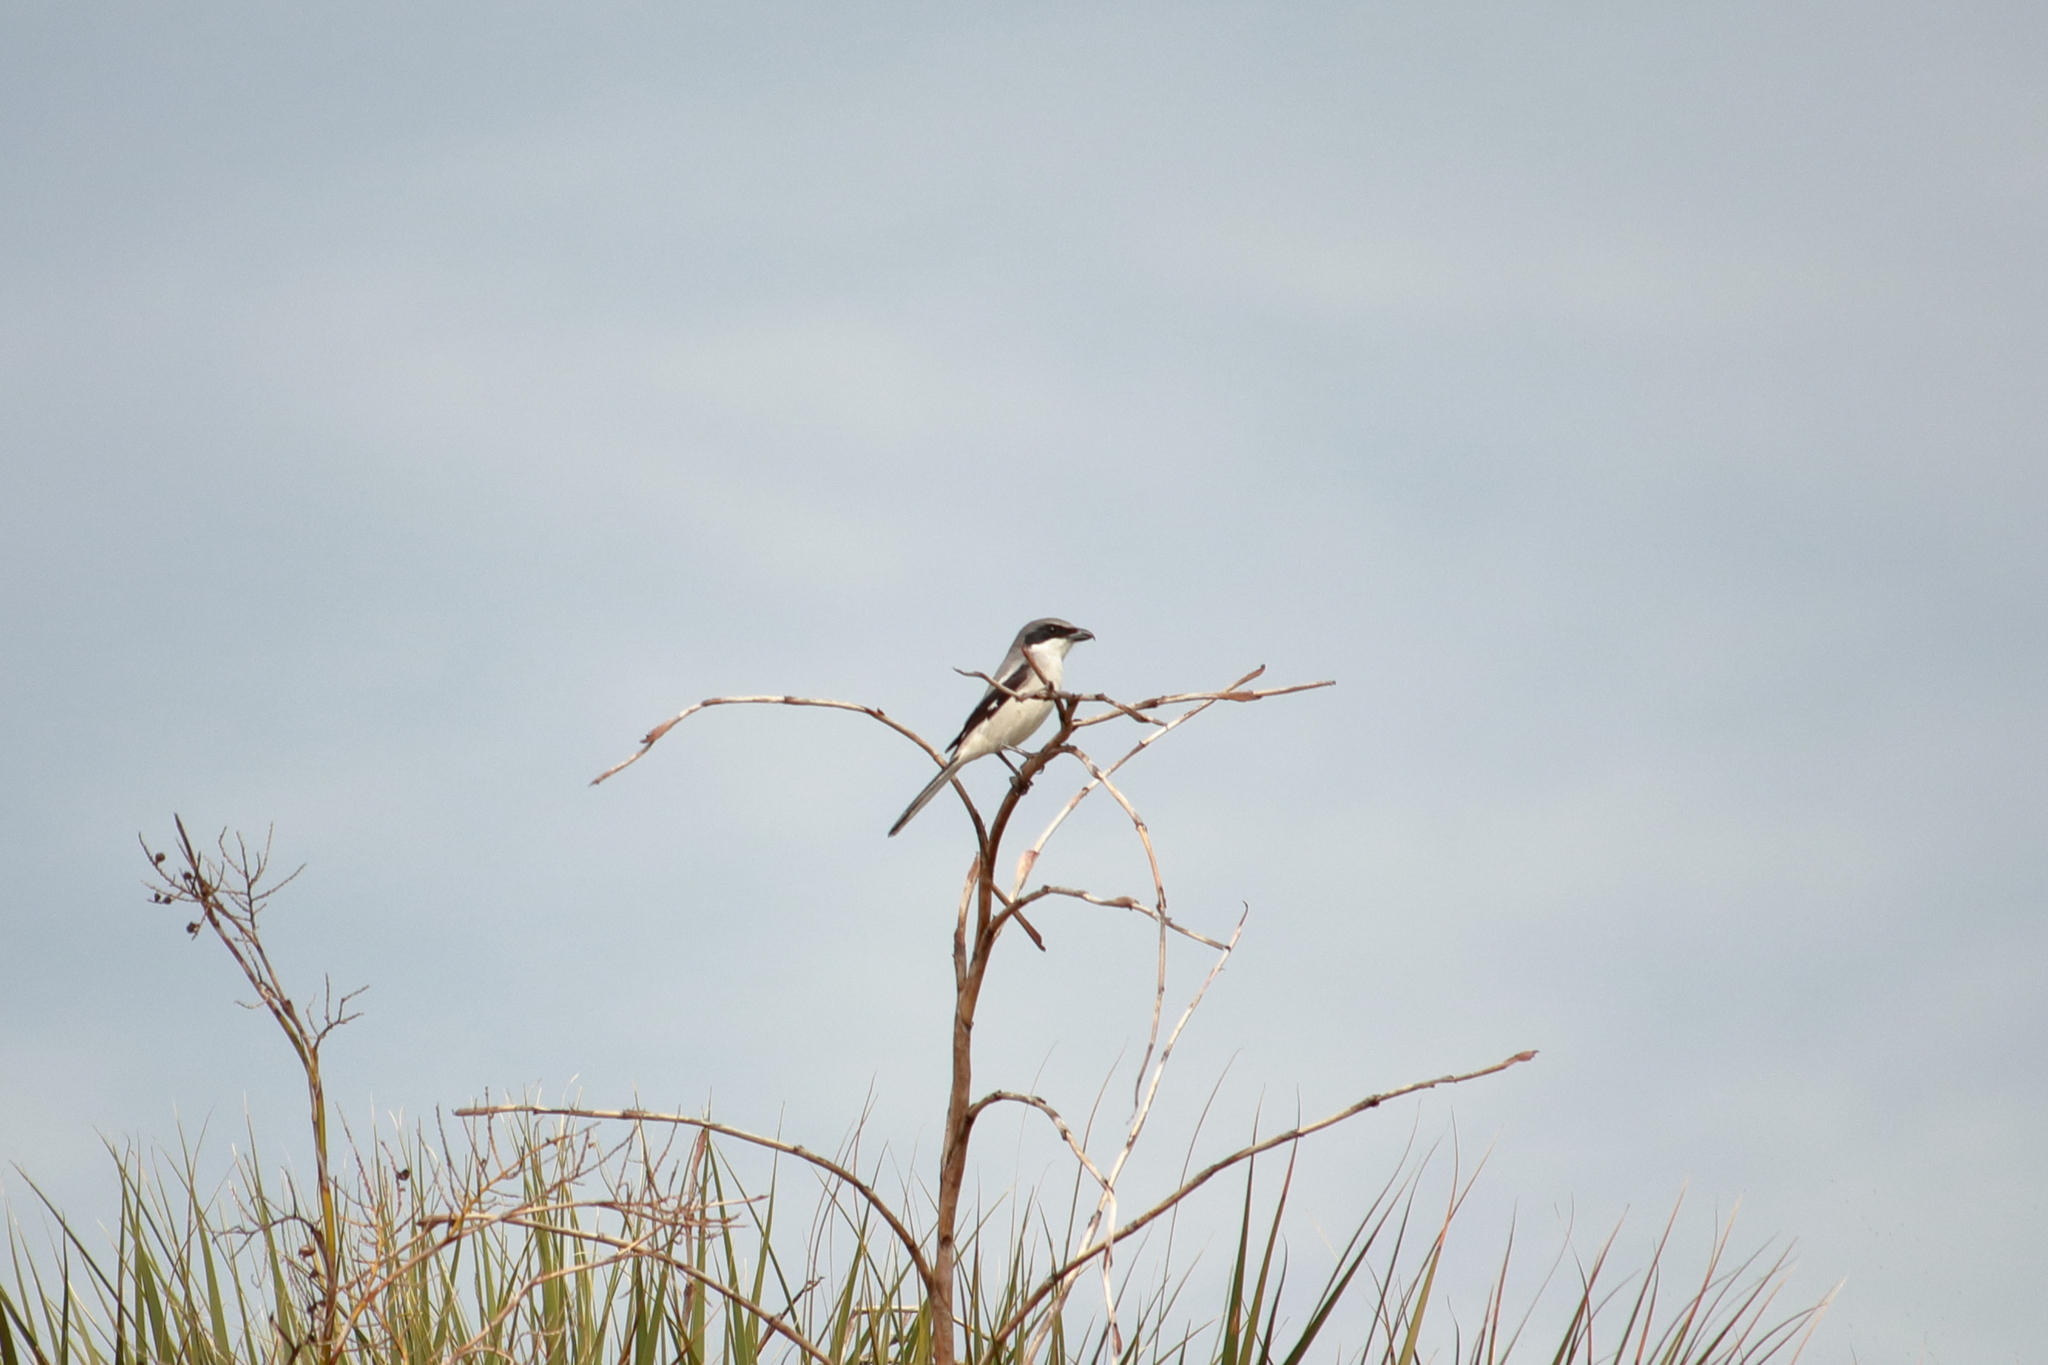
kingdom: Animalia
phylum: Chordata
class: Aves
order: Passeriformes
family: Laniidae
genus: Lanius
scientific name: Lanius ludovicianus
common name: Loggerhead shrike
